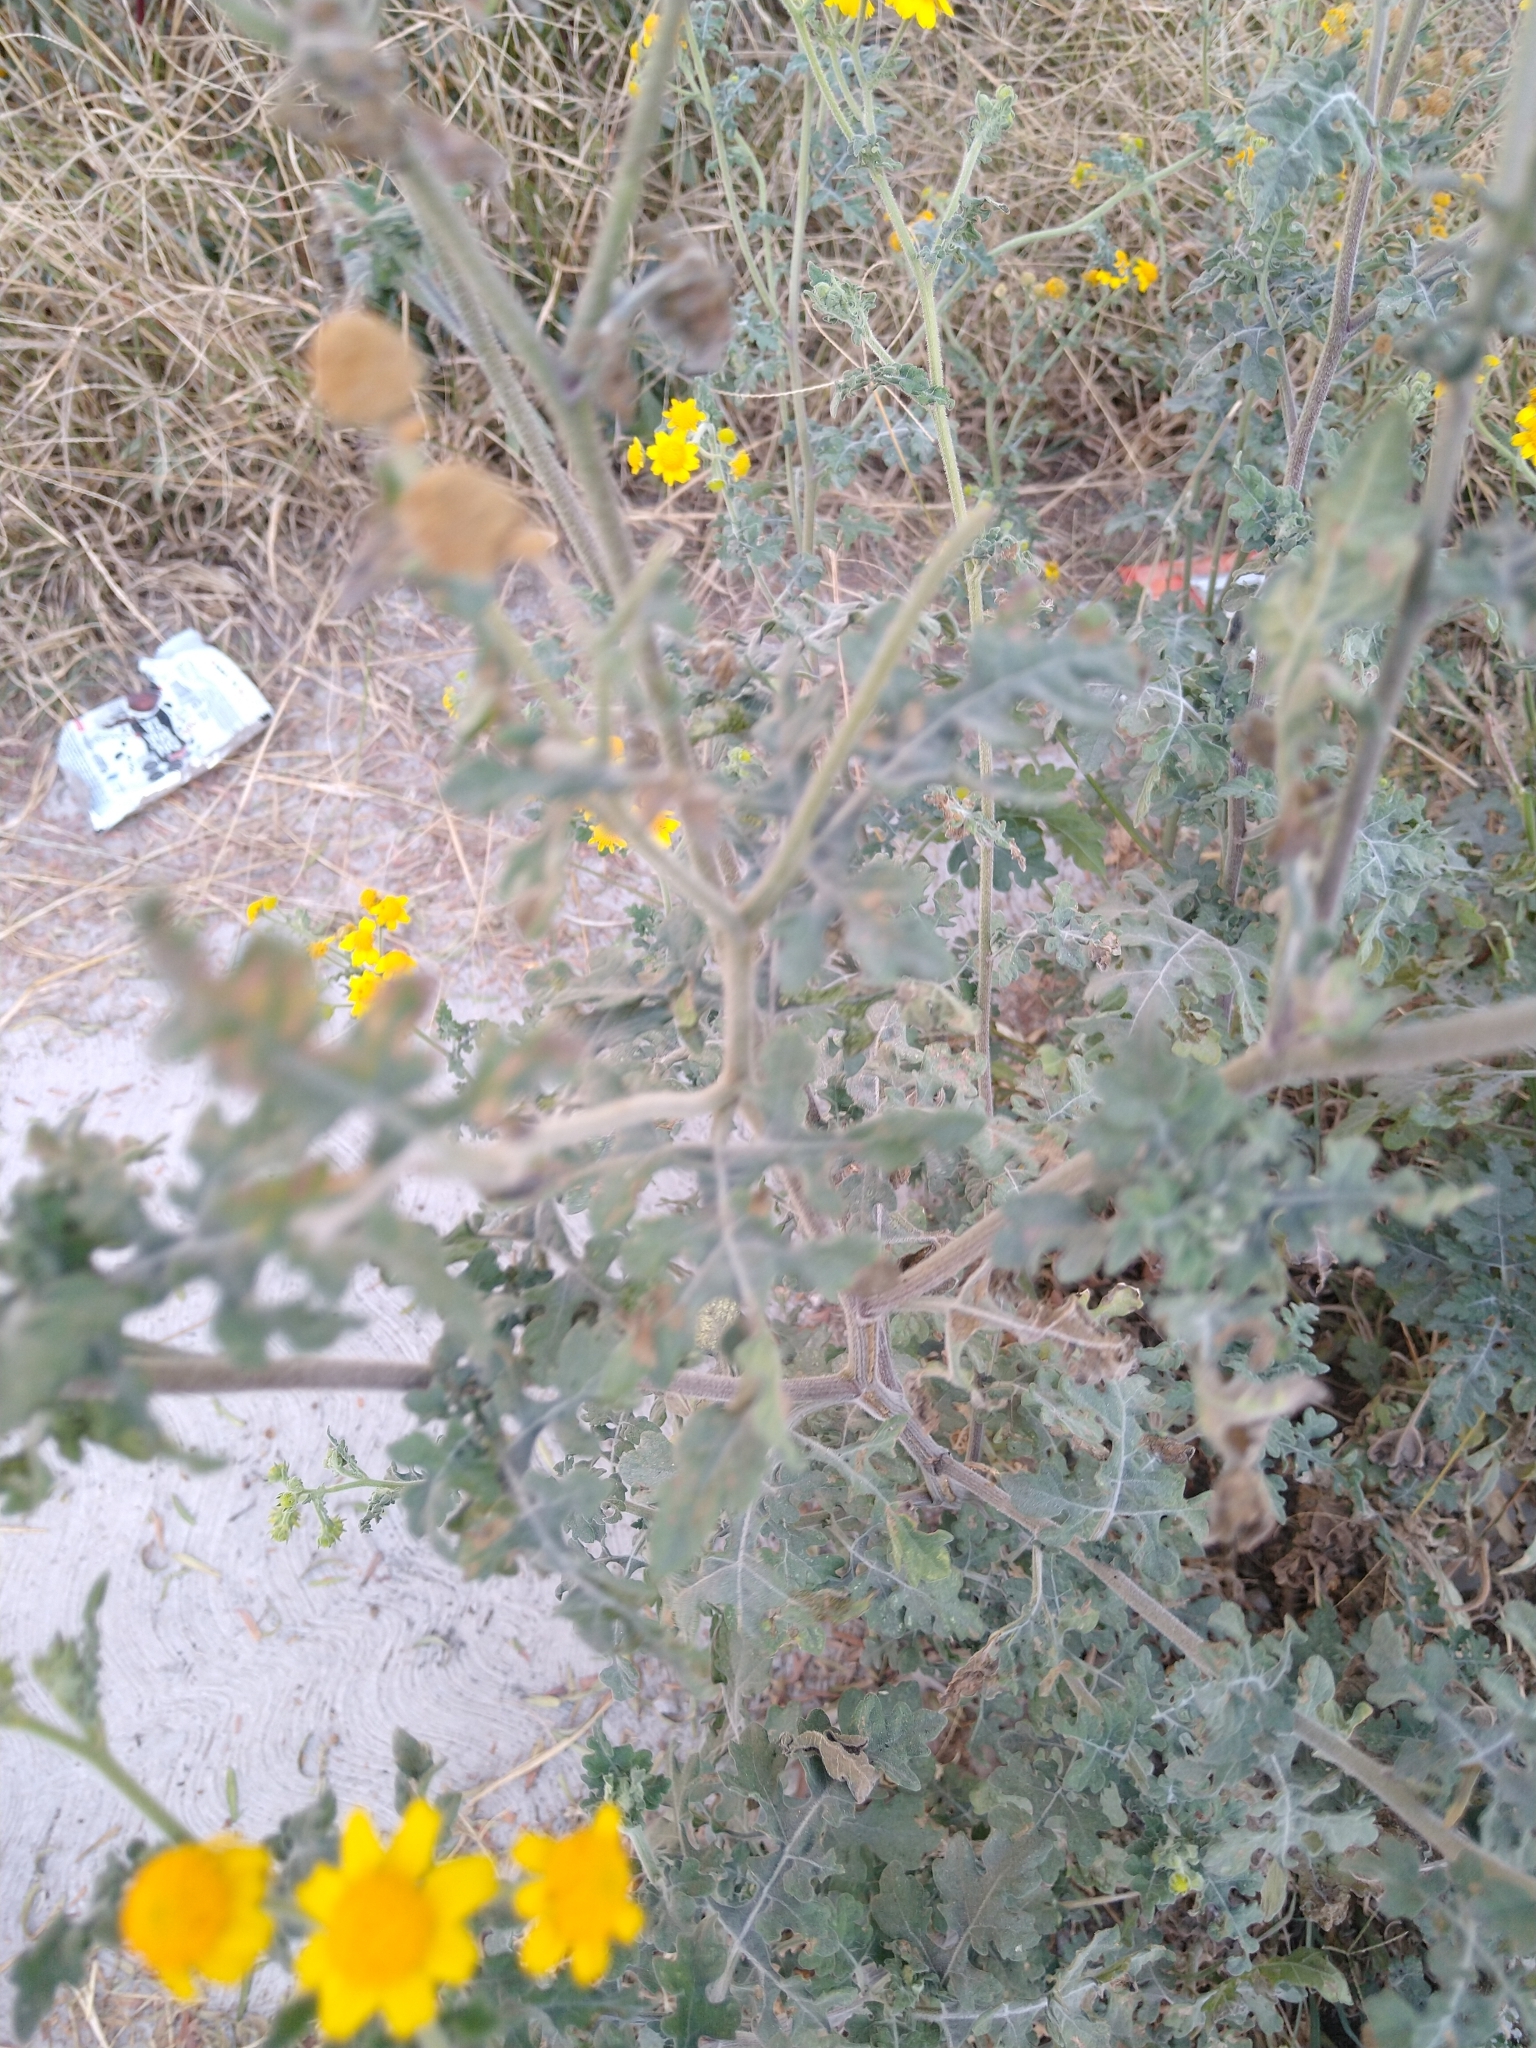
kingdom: Plantae
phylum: Tracheophyta
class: Magnoliopsida
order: Asterales
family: Asteraceae
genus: Zaluzania
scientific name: Zaluzania triloba
